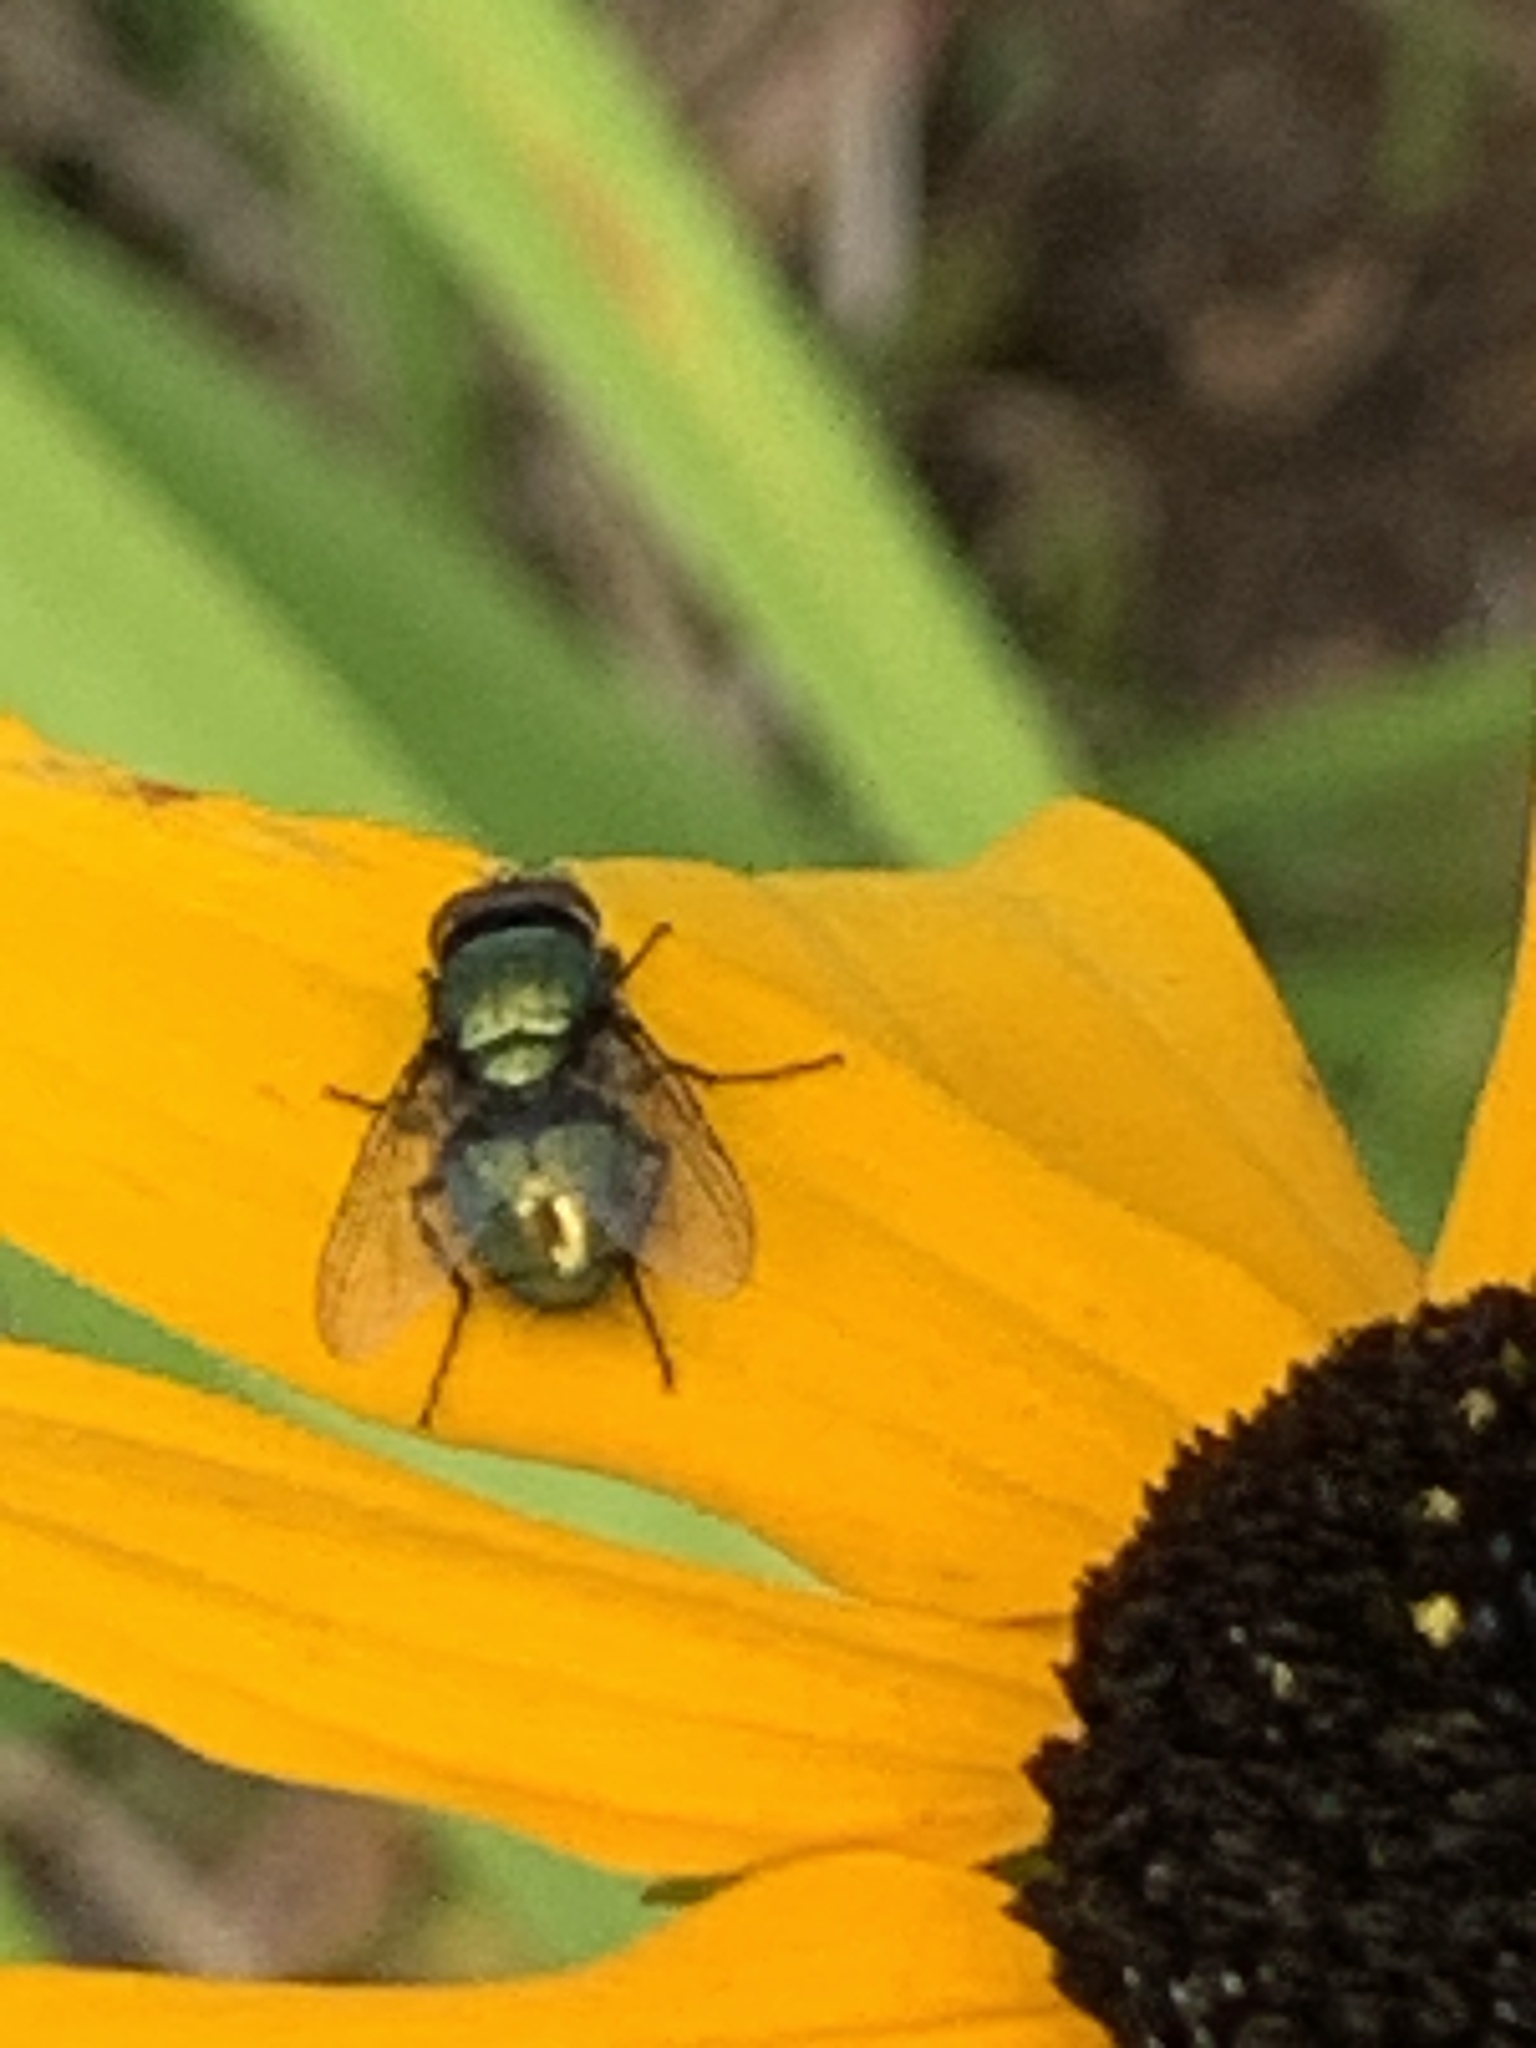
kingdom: Animalia
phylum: Arthropoda
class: Insecta
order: Diptera
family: Calliphoridae
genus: Lucilia
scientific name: Lucilia
